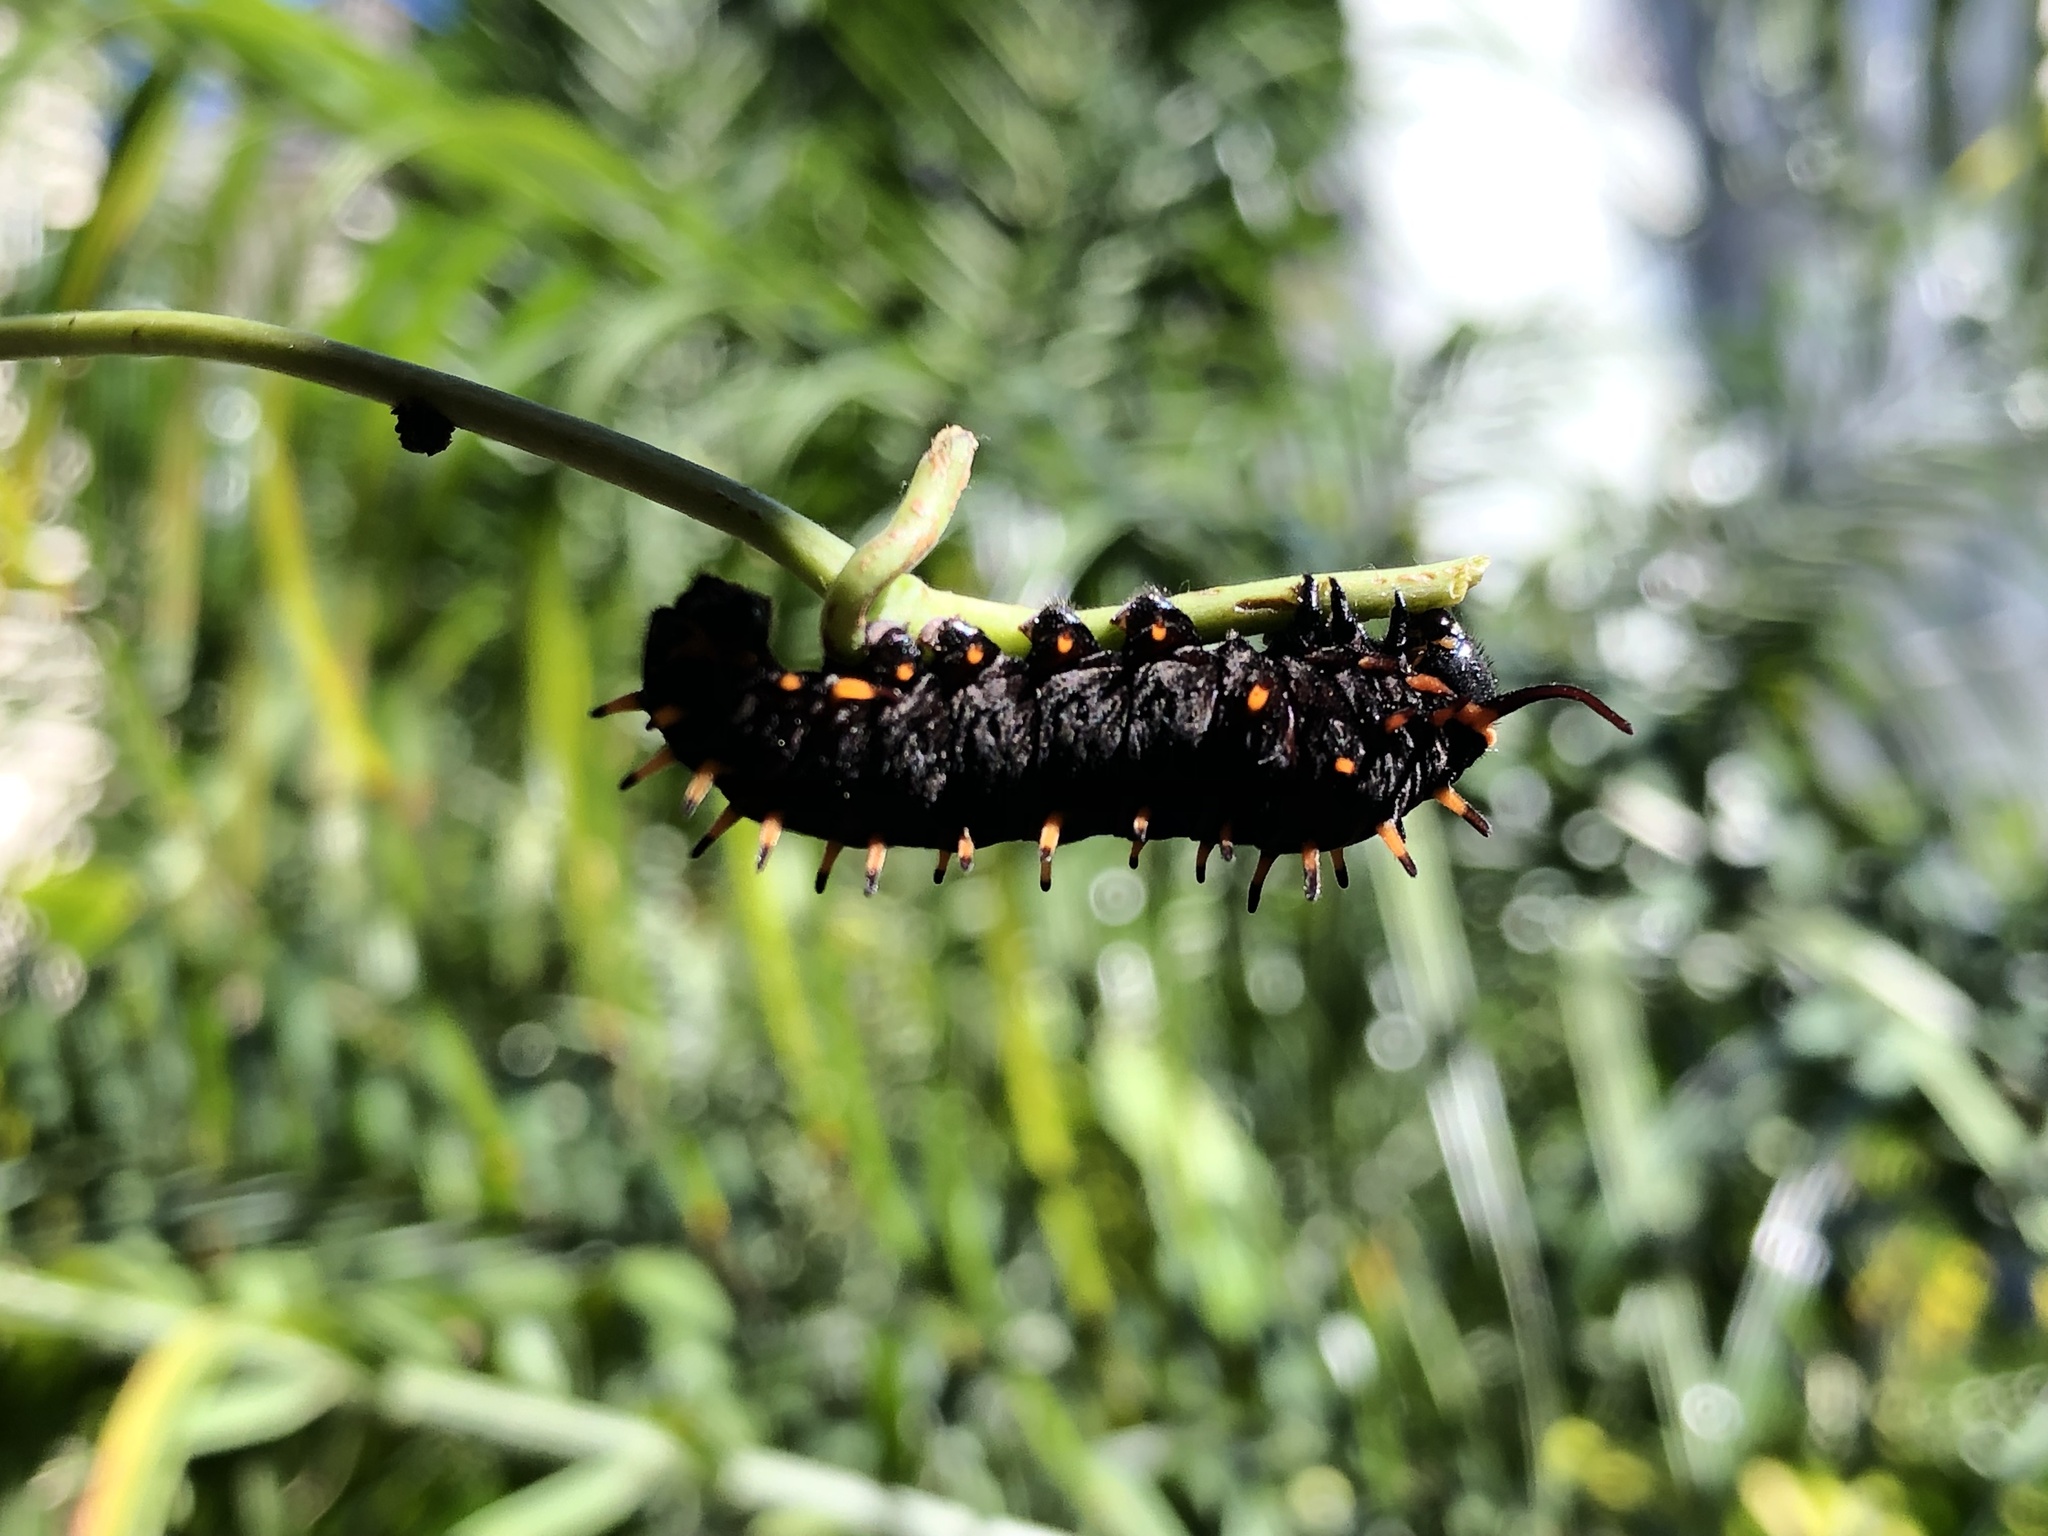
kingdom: Animalia
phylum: Arthropoda
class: Insecta
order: Lepidoptera
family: Papilionidae
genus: Battus
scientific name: Battus polydamas
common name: Polydamas swallowtail
